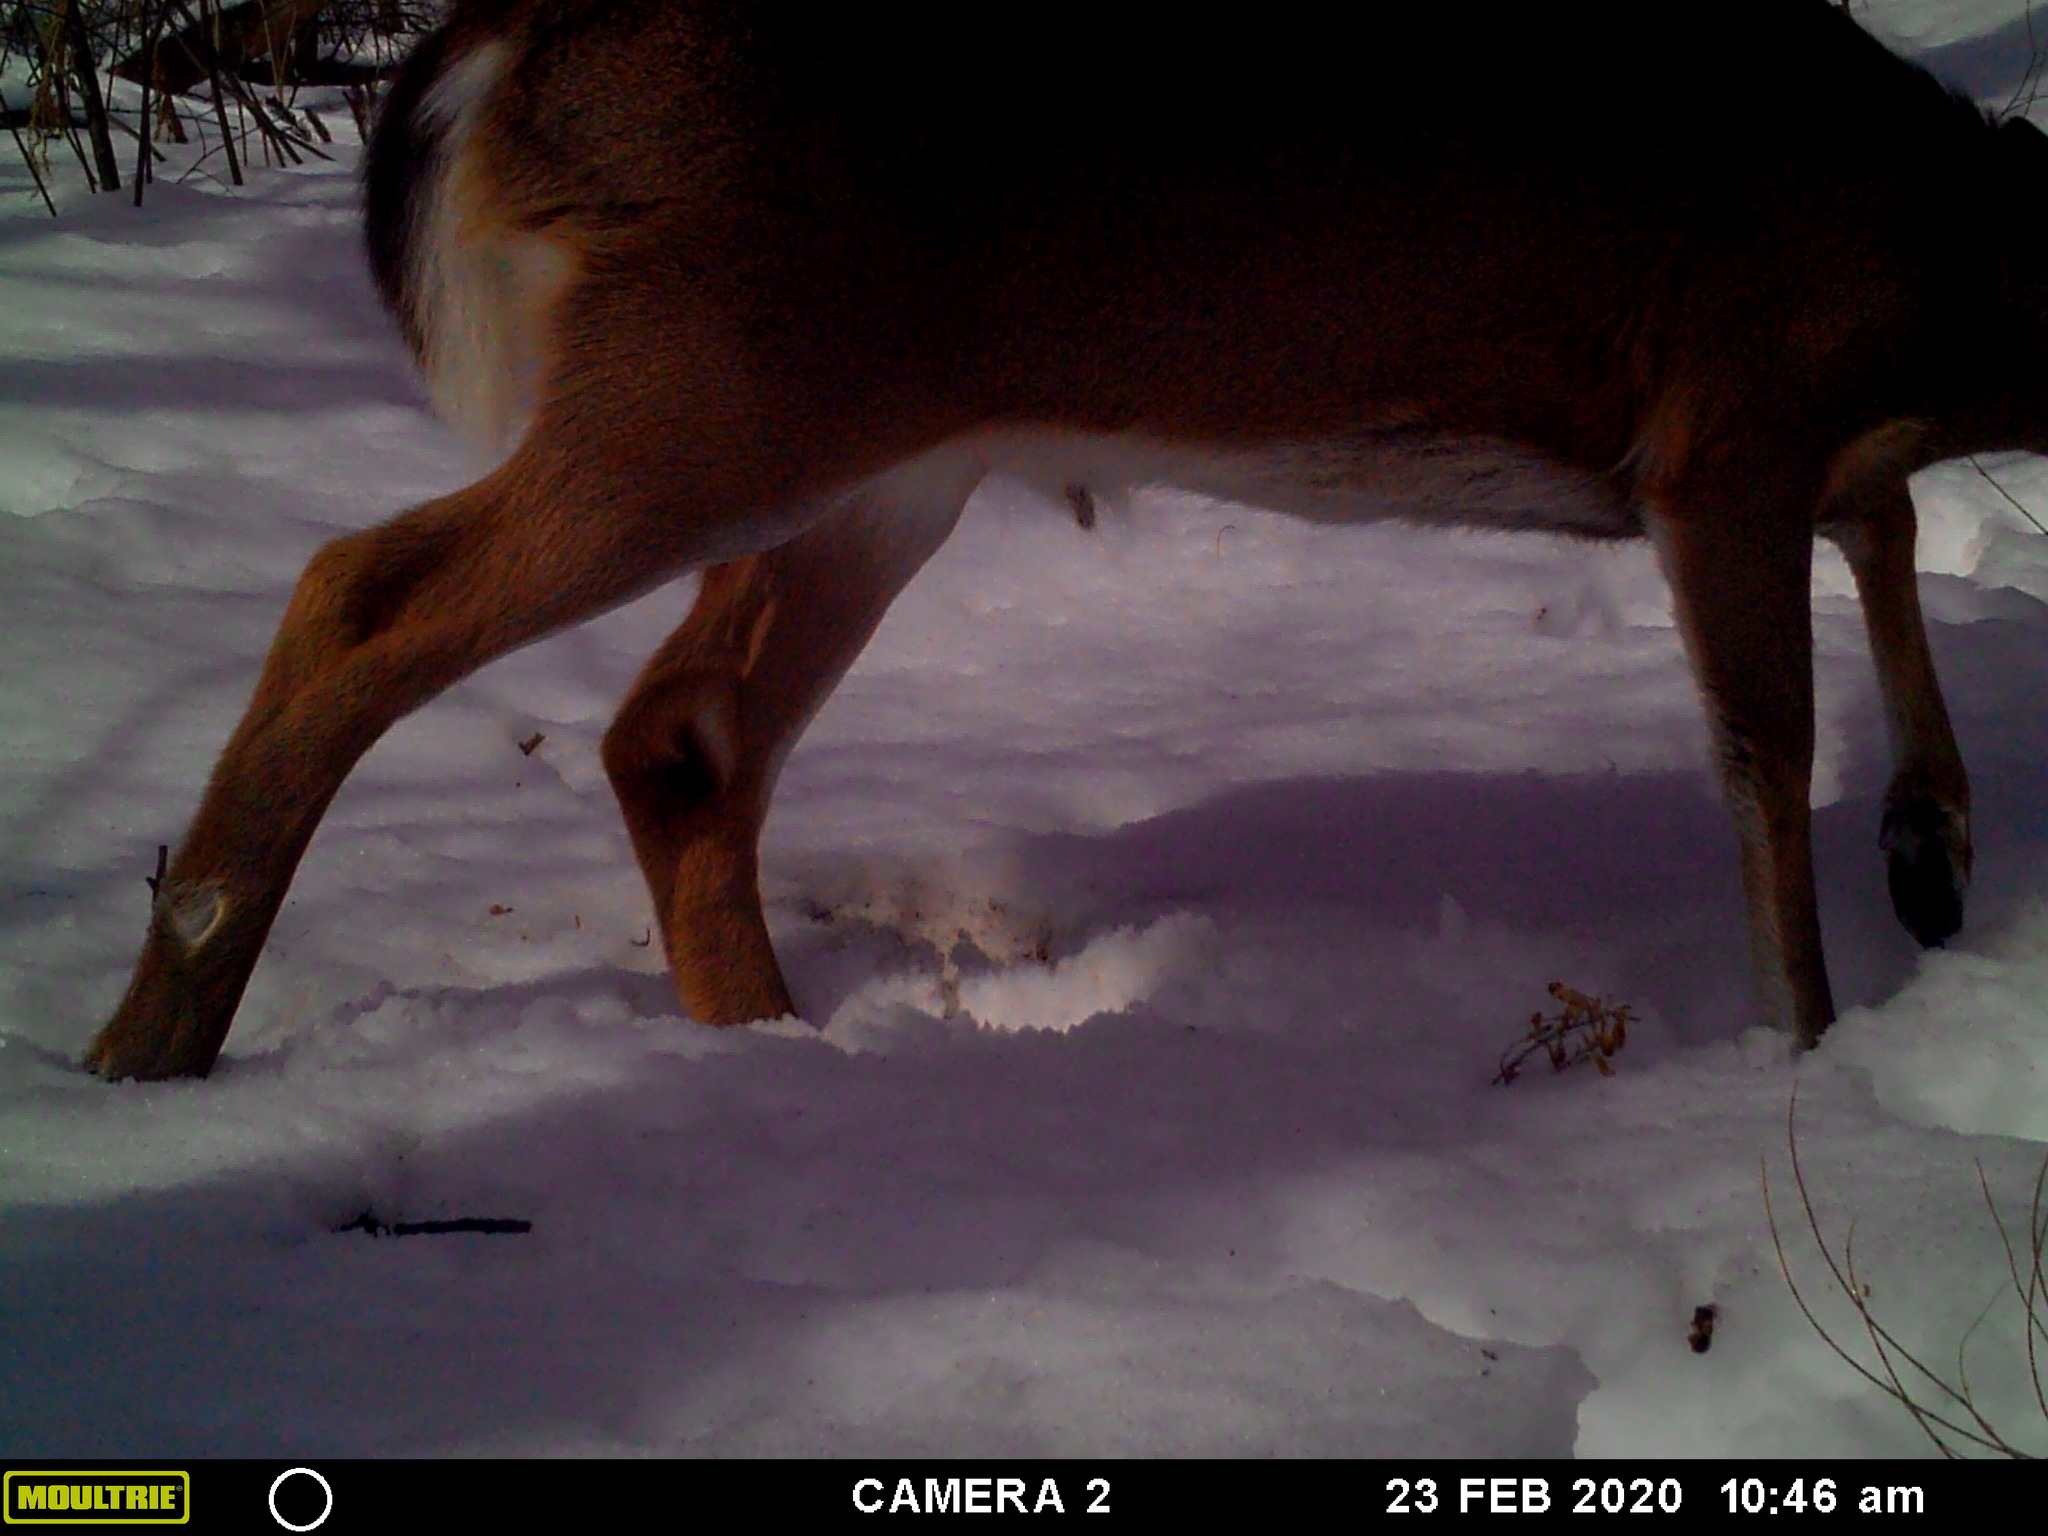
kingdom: Animalia
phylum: Chordata
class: Mammalia
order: Artiodactyla
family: Cervidae
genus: Odocoileus
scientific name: Odocoileus virginianus
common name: White-tailed deer
